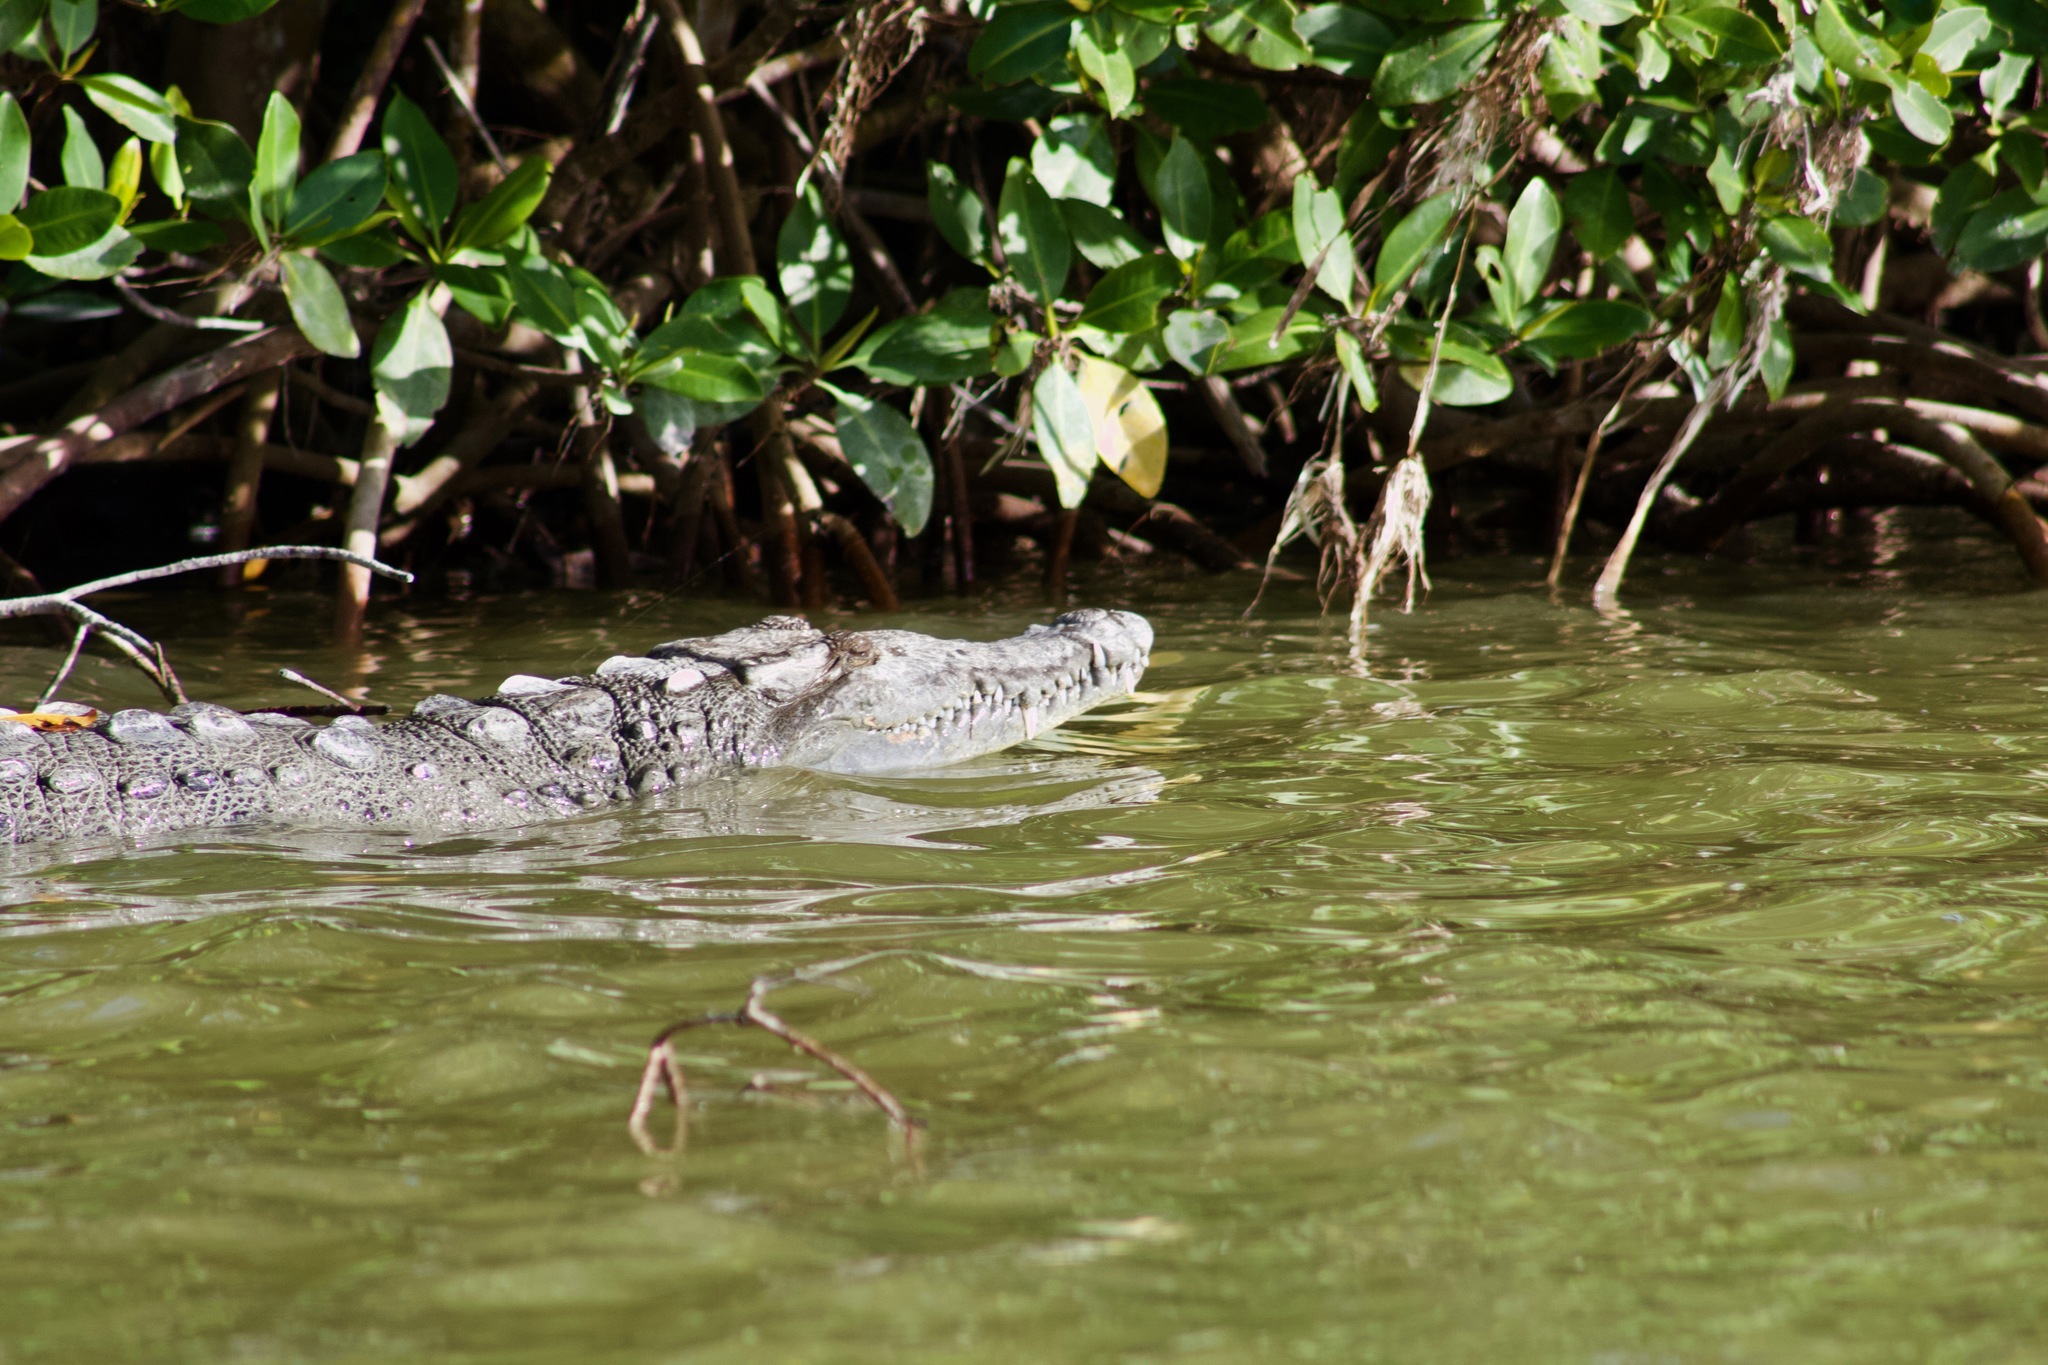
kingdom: Animalia
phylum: Chordata
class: Crocodylia
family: Crocodylidae
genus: Crocodylus
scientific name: Crocodylus acutus
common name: American crocodile
